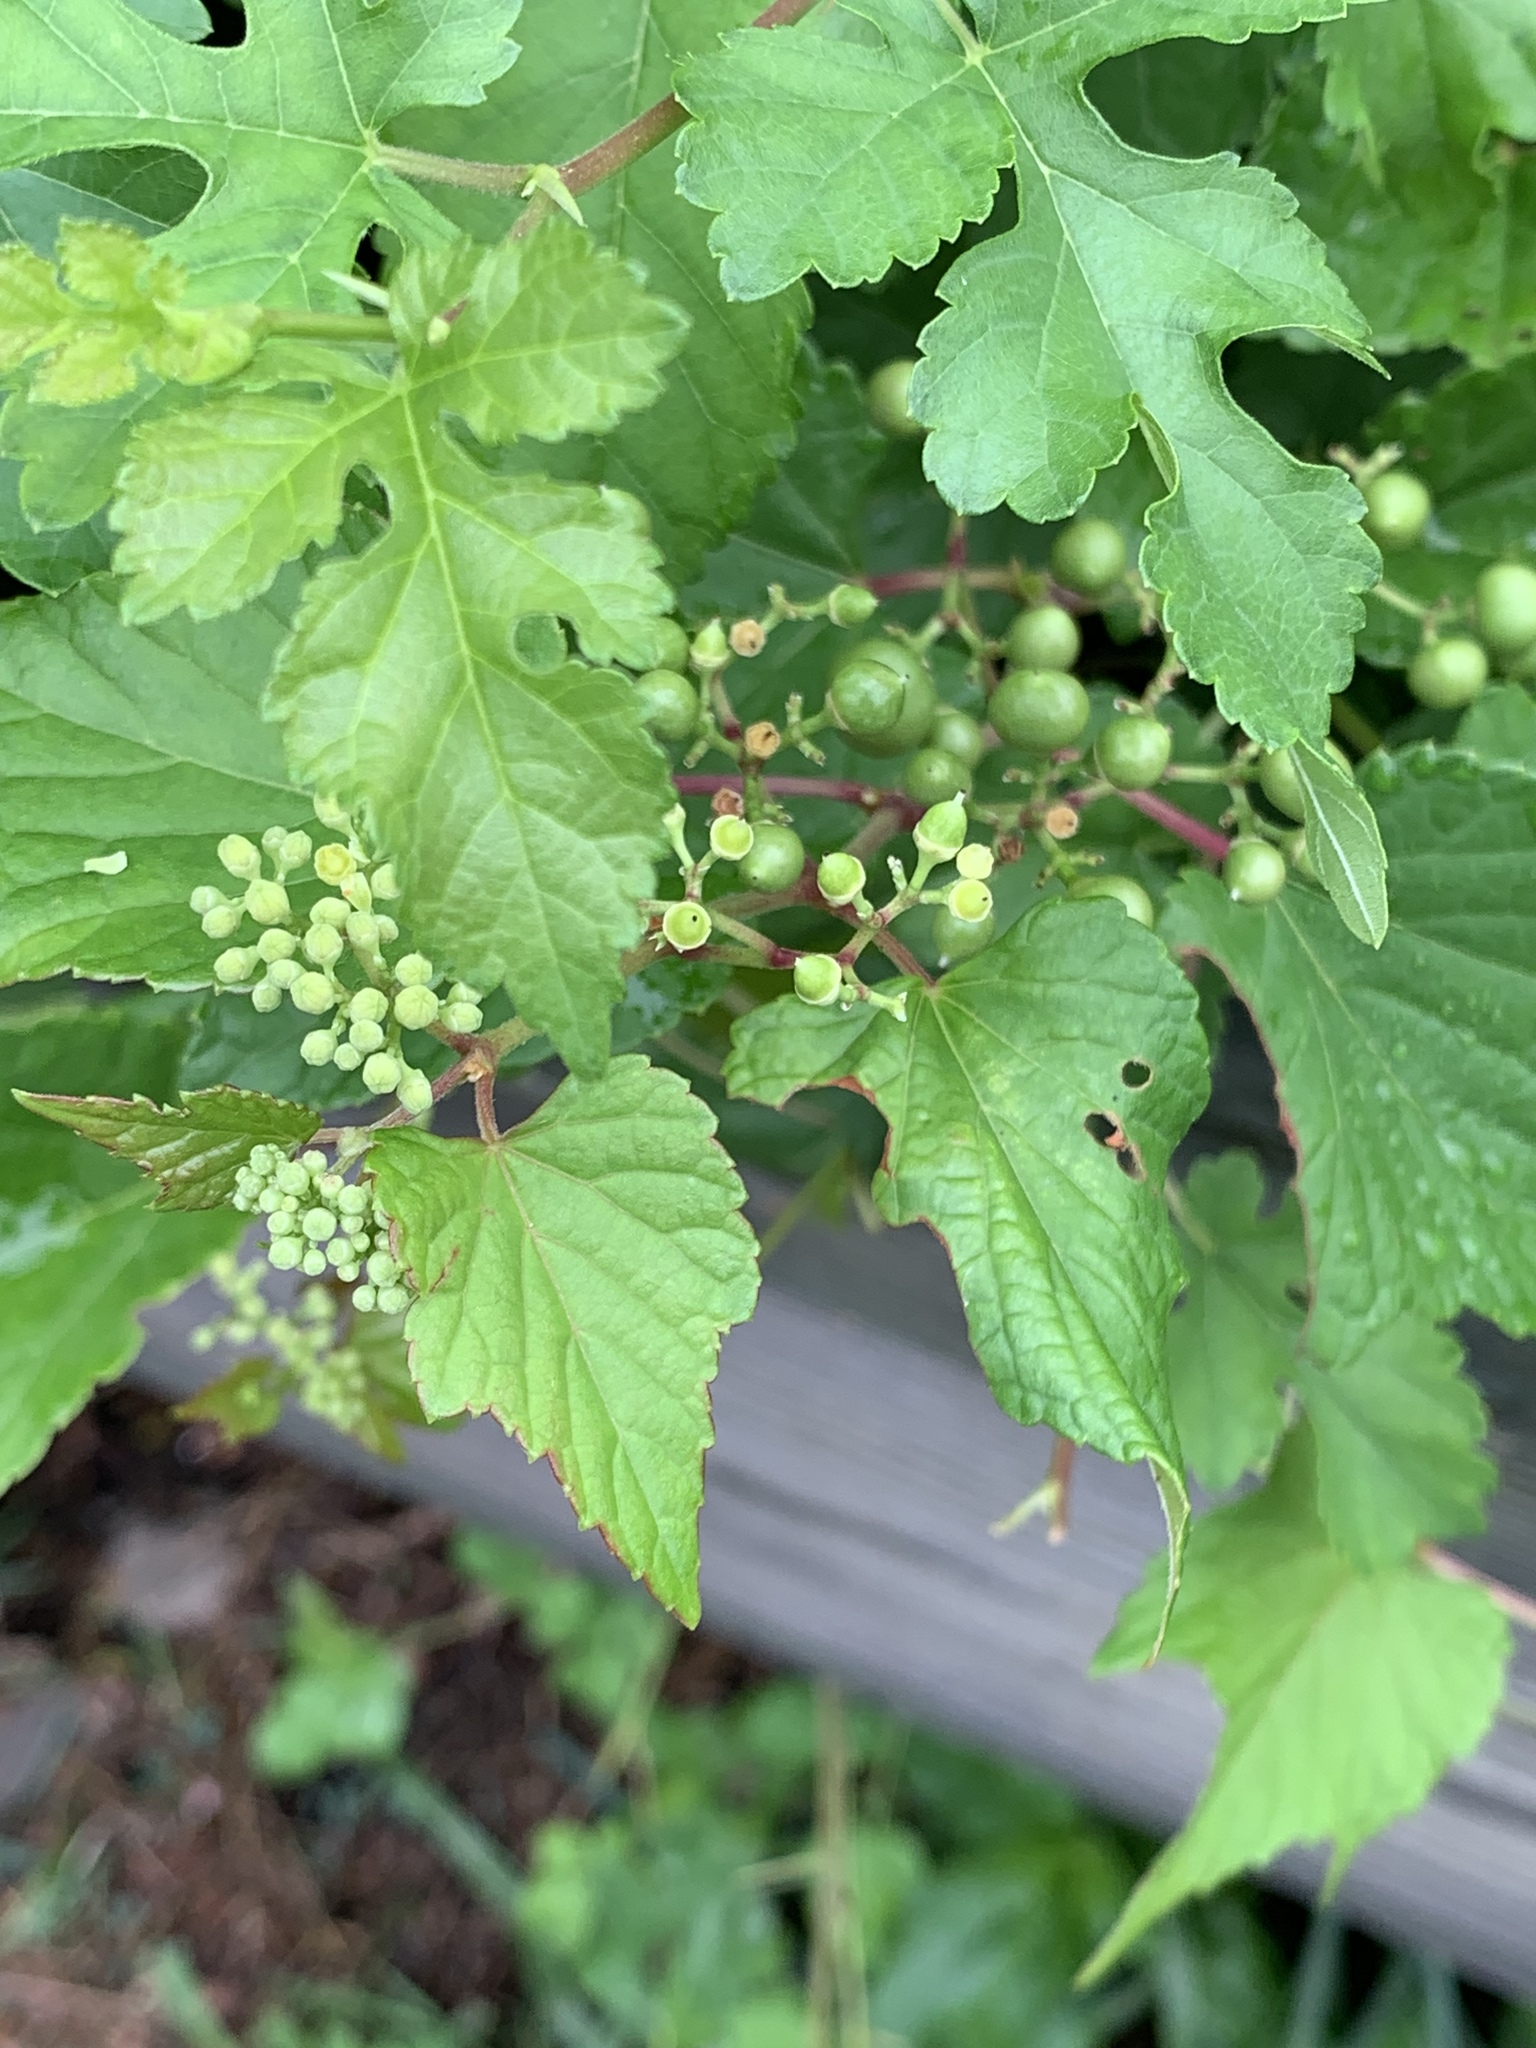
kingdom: Plantae
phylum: Tracheophyta
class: Magnoliopsida
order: Vitales
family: Vitaceae
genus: Ampelopsis
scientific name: Ampelopsis glandulosa
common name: Amur peppervine
